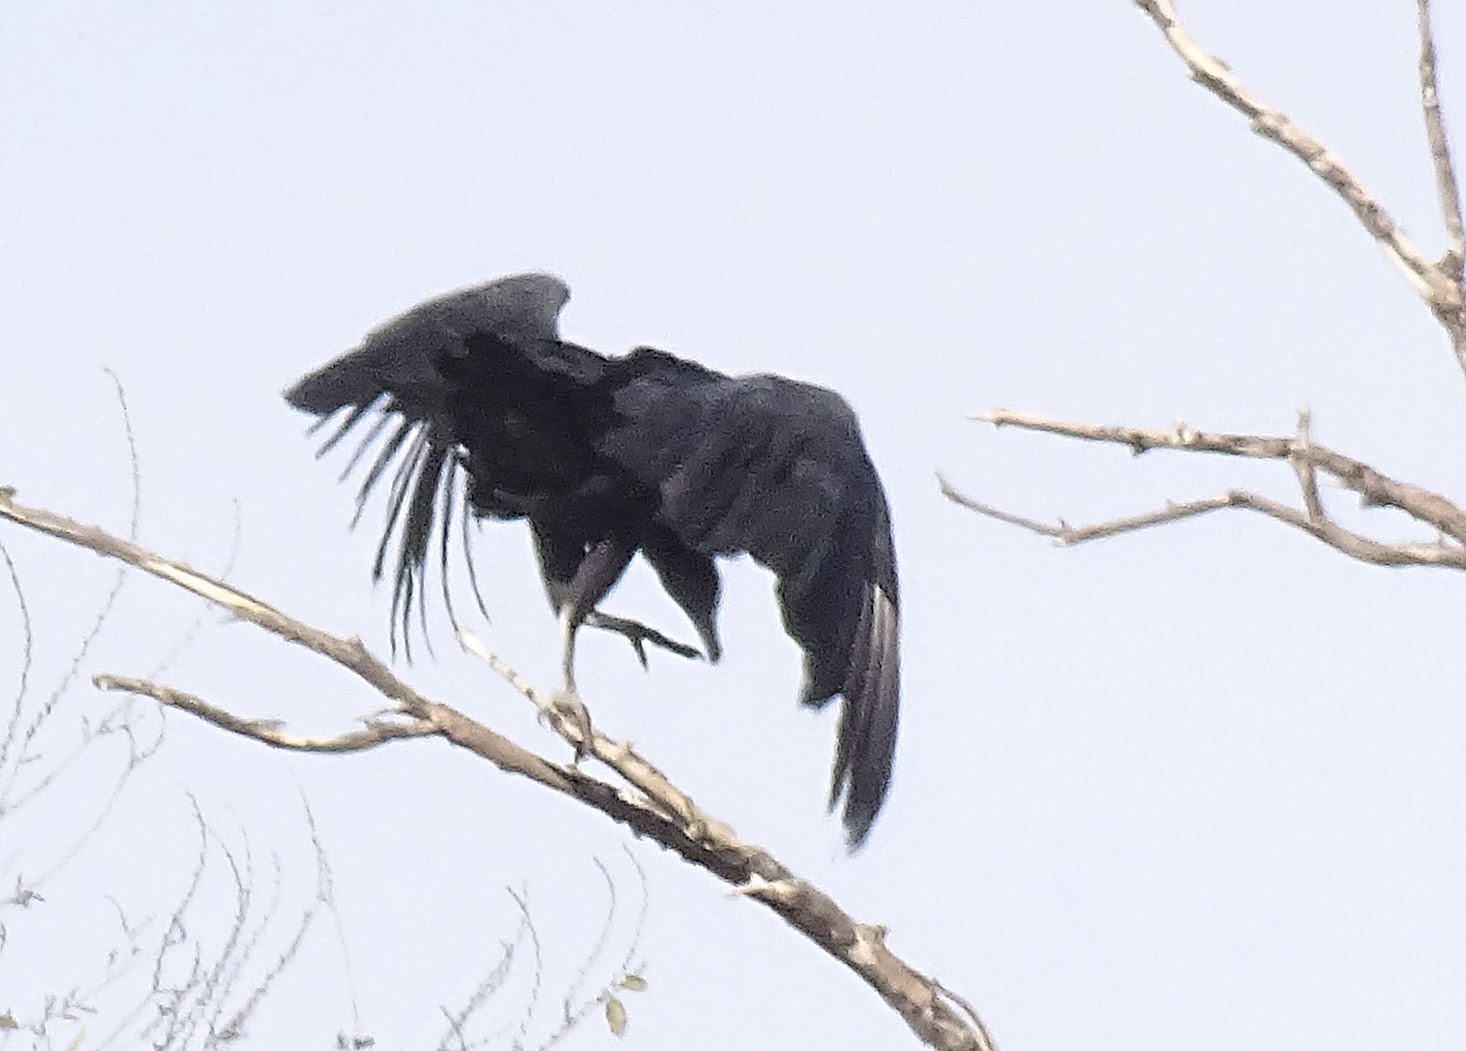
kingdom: Animalia
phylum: Chordata
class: Aves
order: Accipitriformes
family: Cathartidae
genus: Coragyps
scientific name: Coragyps atratus
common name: Black vulture
